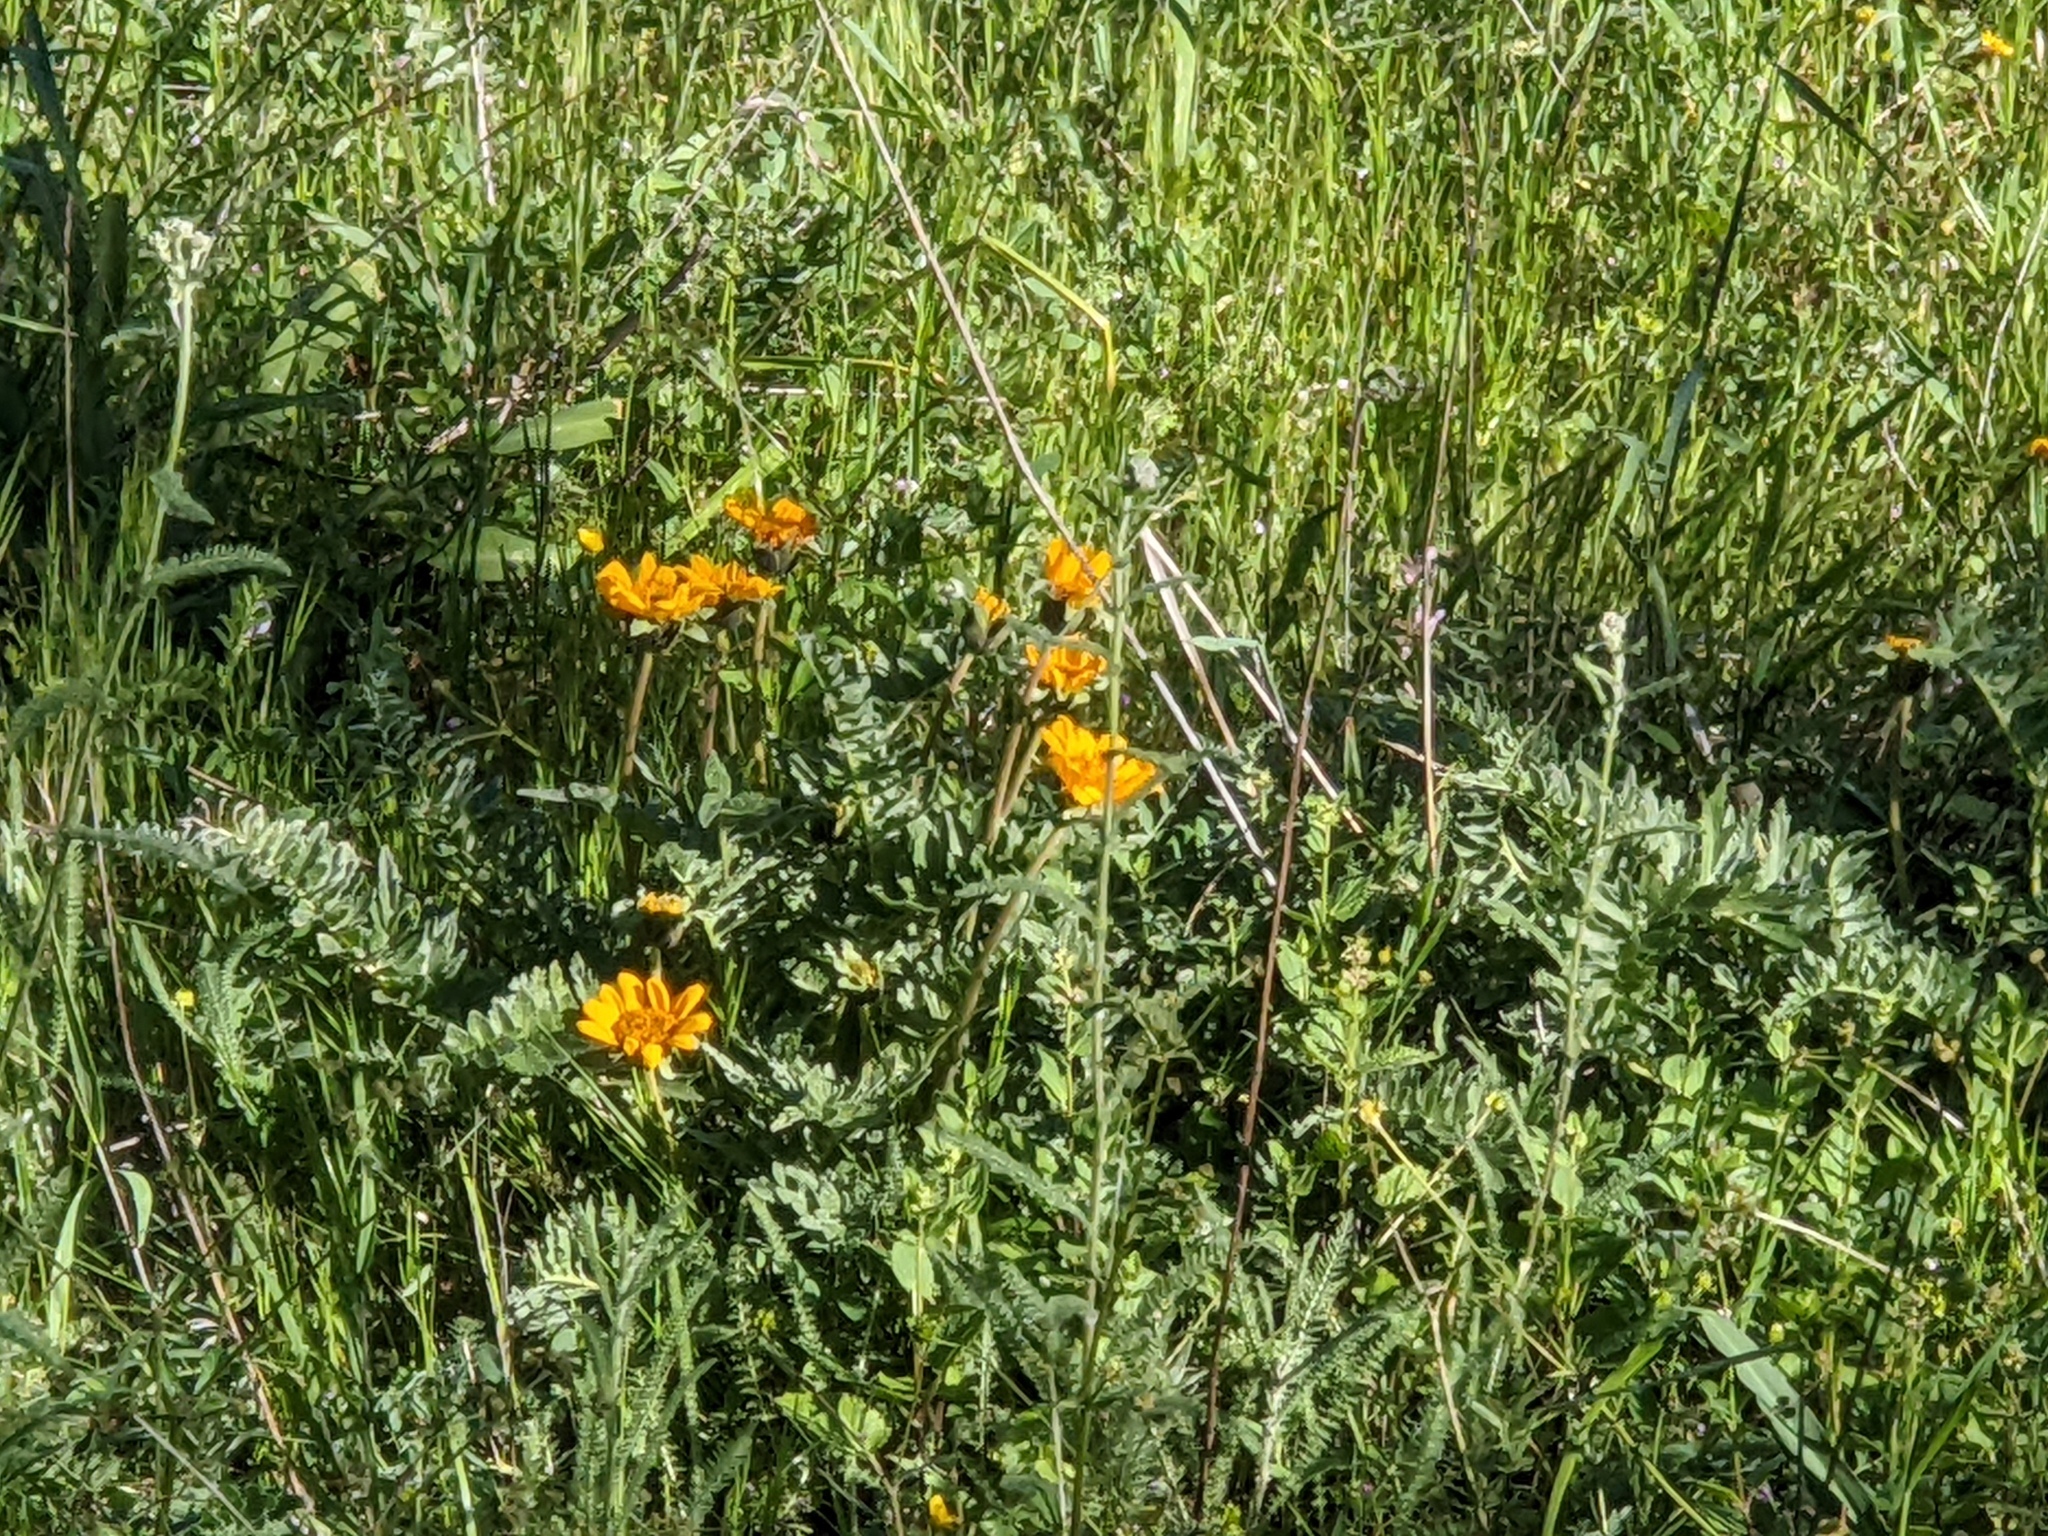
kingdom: Plantae
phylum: Tracheophyta
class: Magnoliopsida
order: Asterales
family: Asteraceae
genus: Balsamorhiza
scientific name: Balsamorhiza macrolepis
